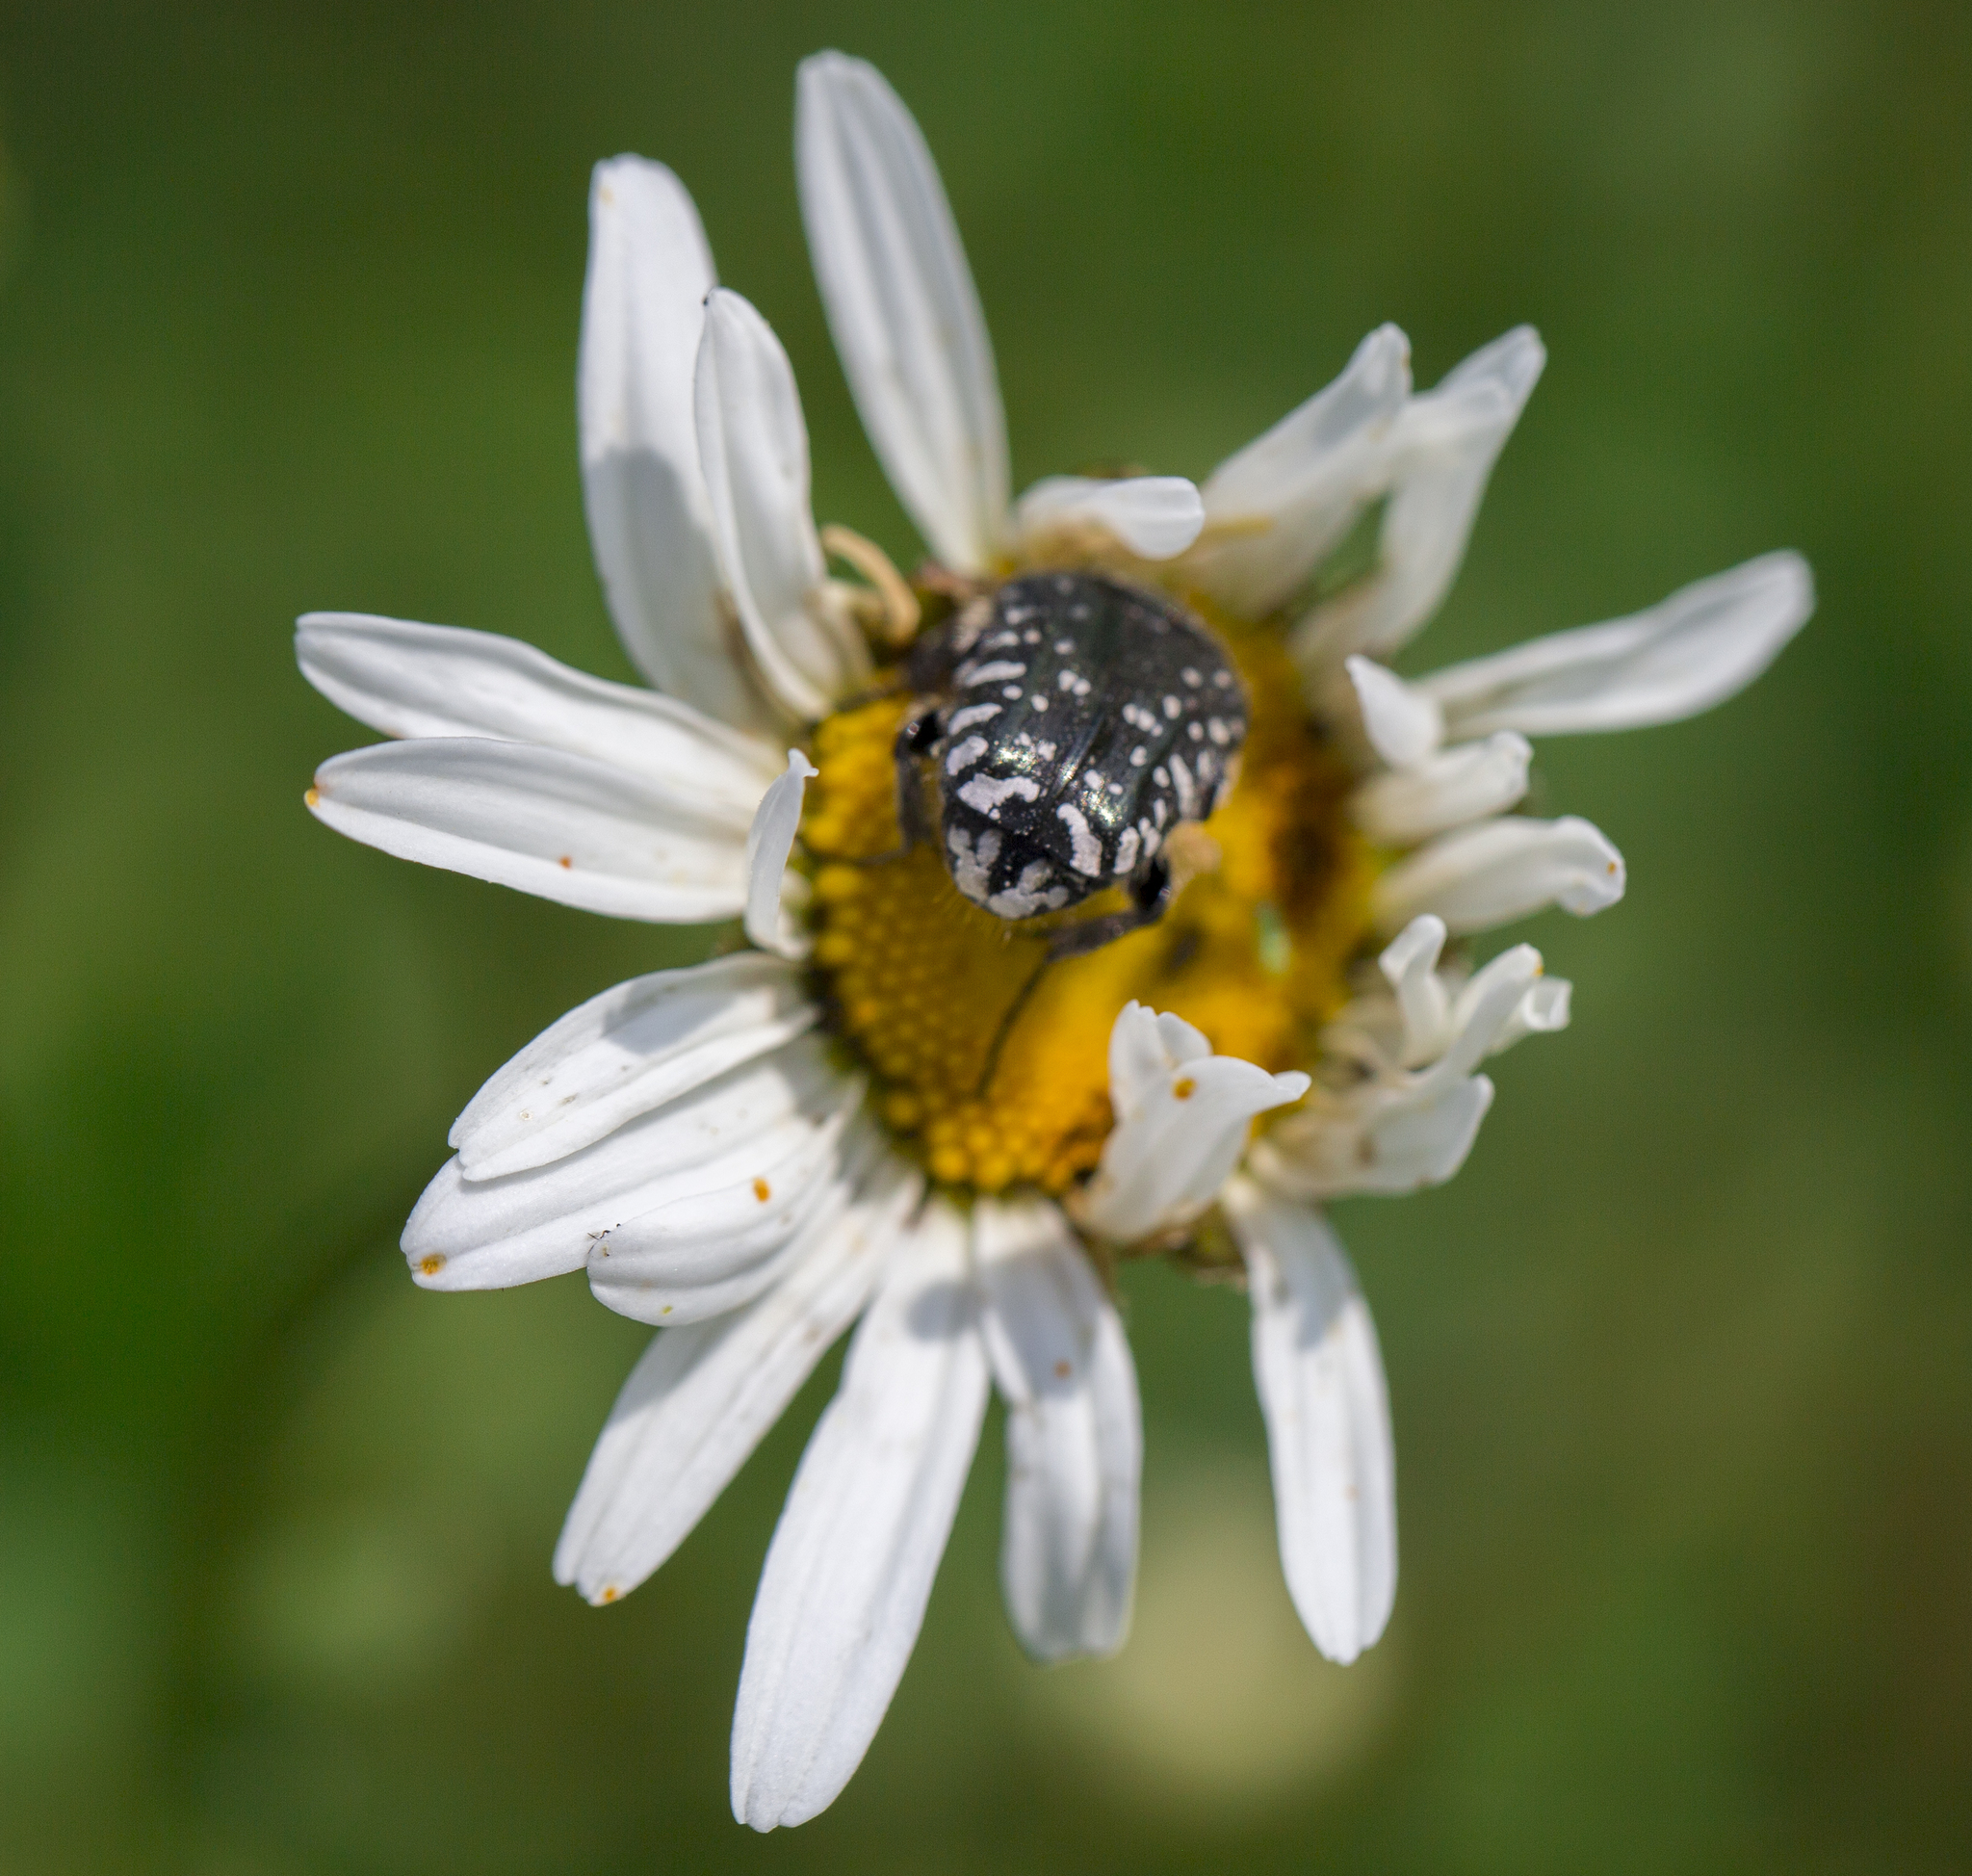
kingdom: Animalia
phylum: Arthropoda
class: Insecta
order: Coleoptera
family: Scarabaeidae
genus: Oxythyrea
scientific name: Oxythyrea funesta
